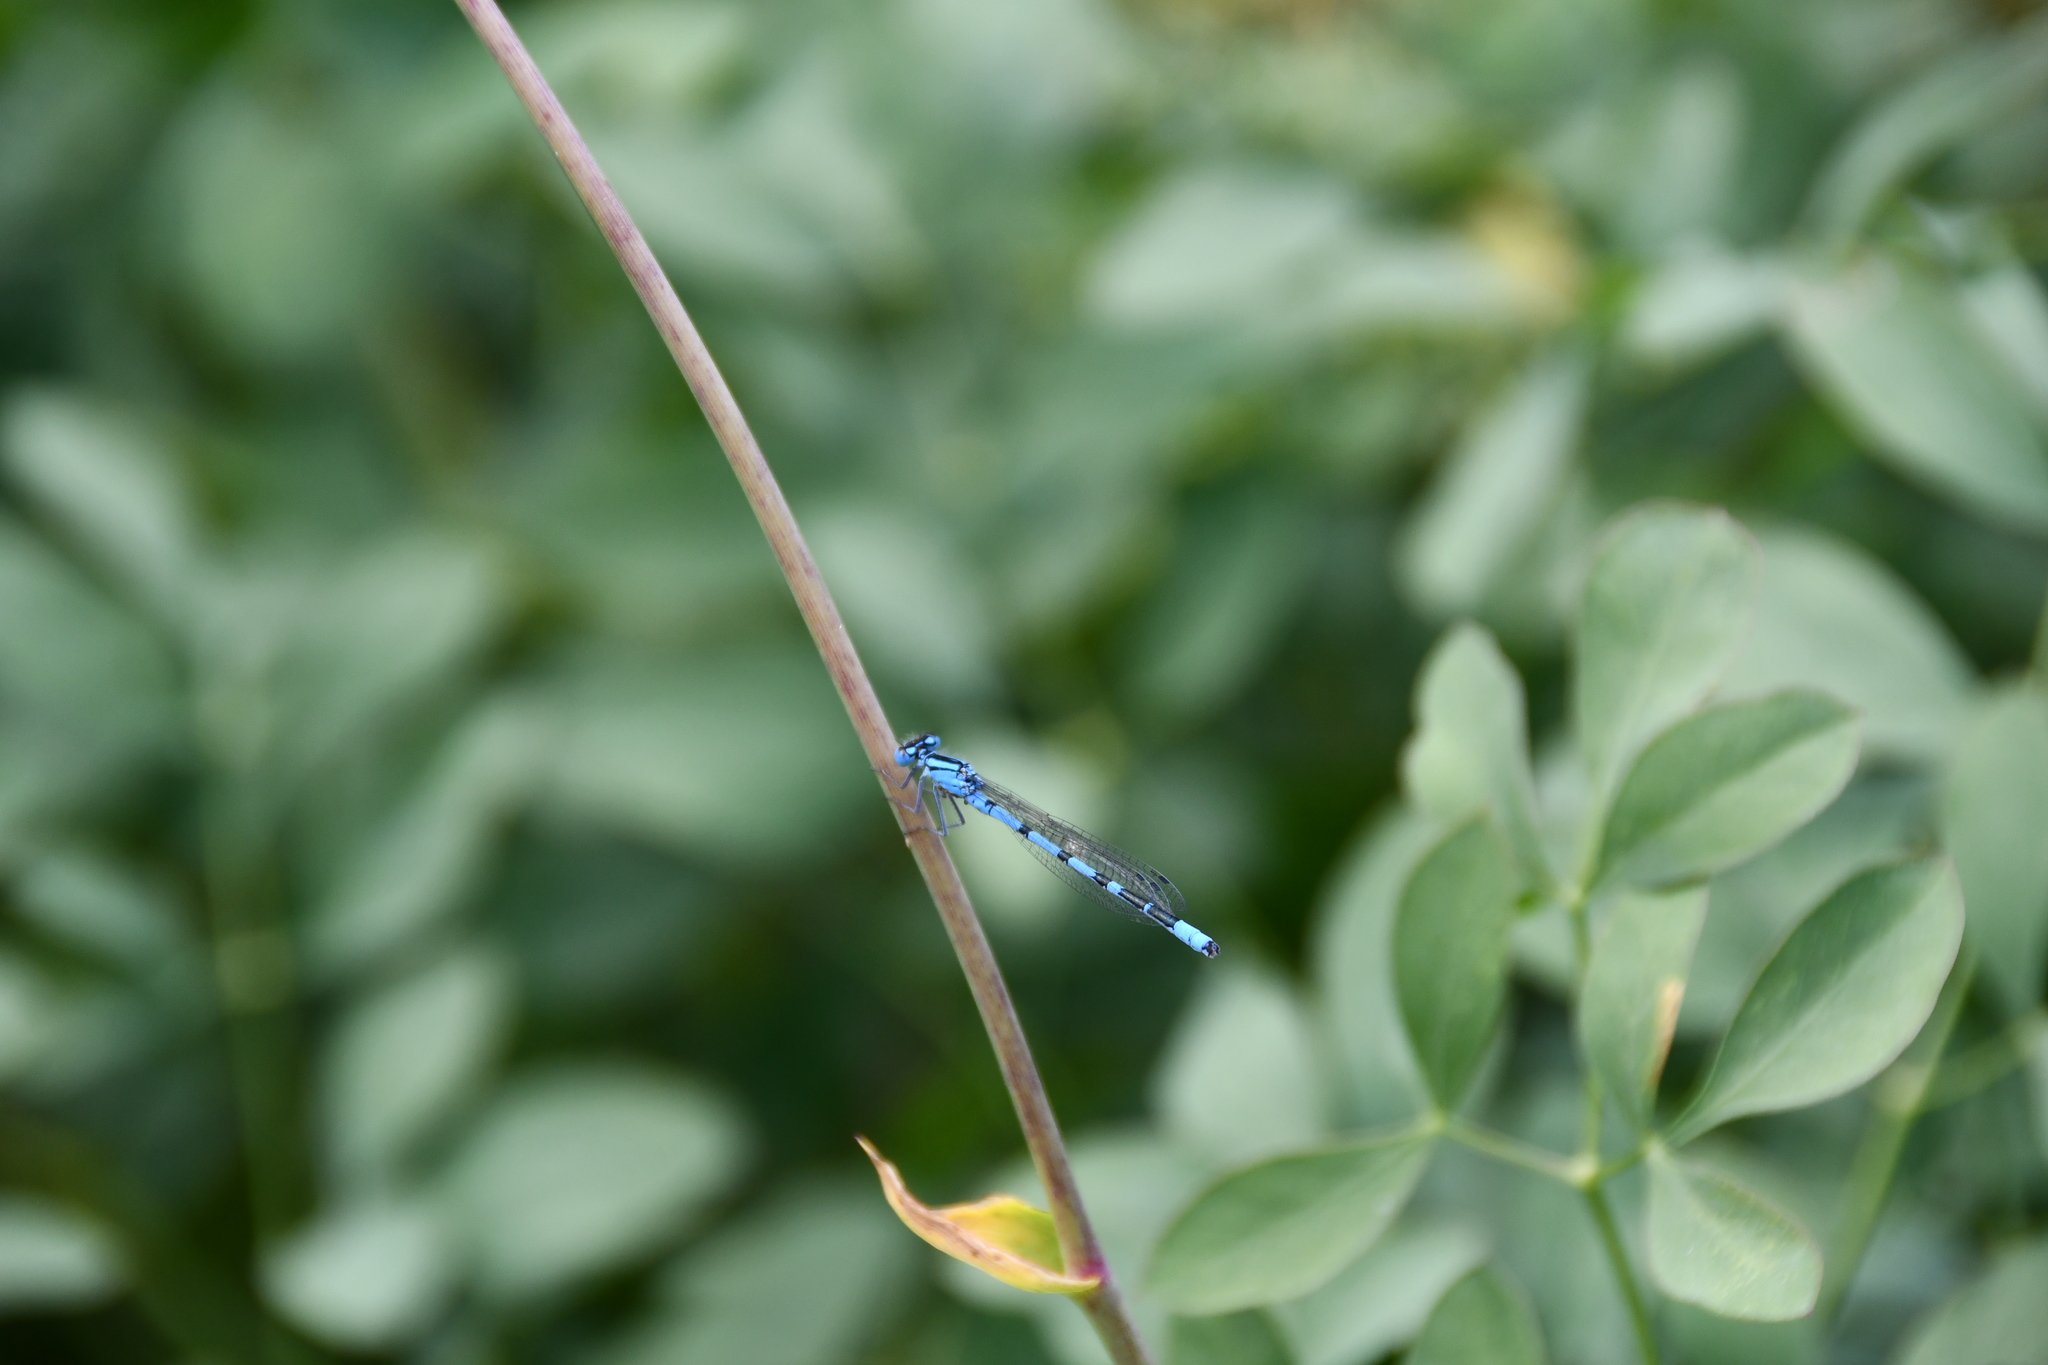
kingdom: Animalia
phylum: Arthropoda
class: Insecta
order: Odonata
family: Coenagrionidae
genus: Enallagma
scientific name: Enallagma cyathigerum
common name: Common blue damselfly
